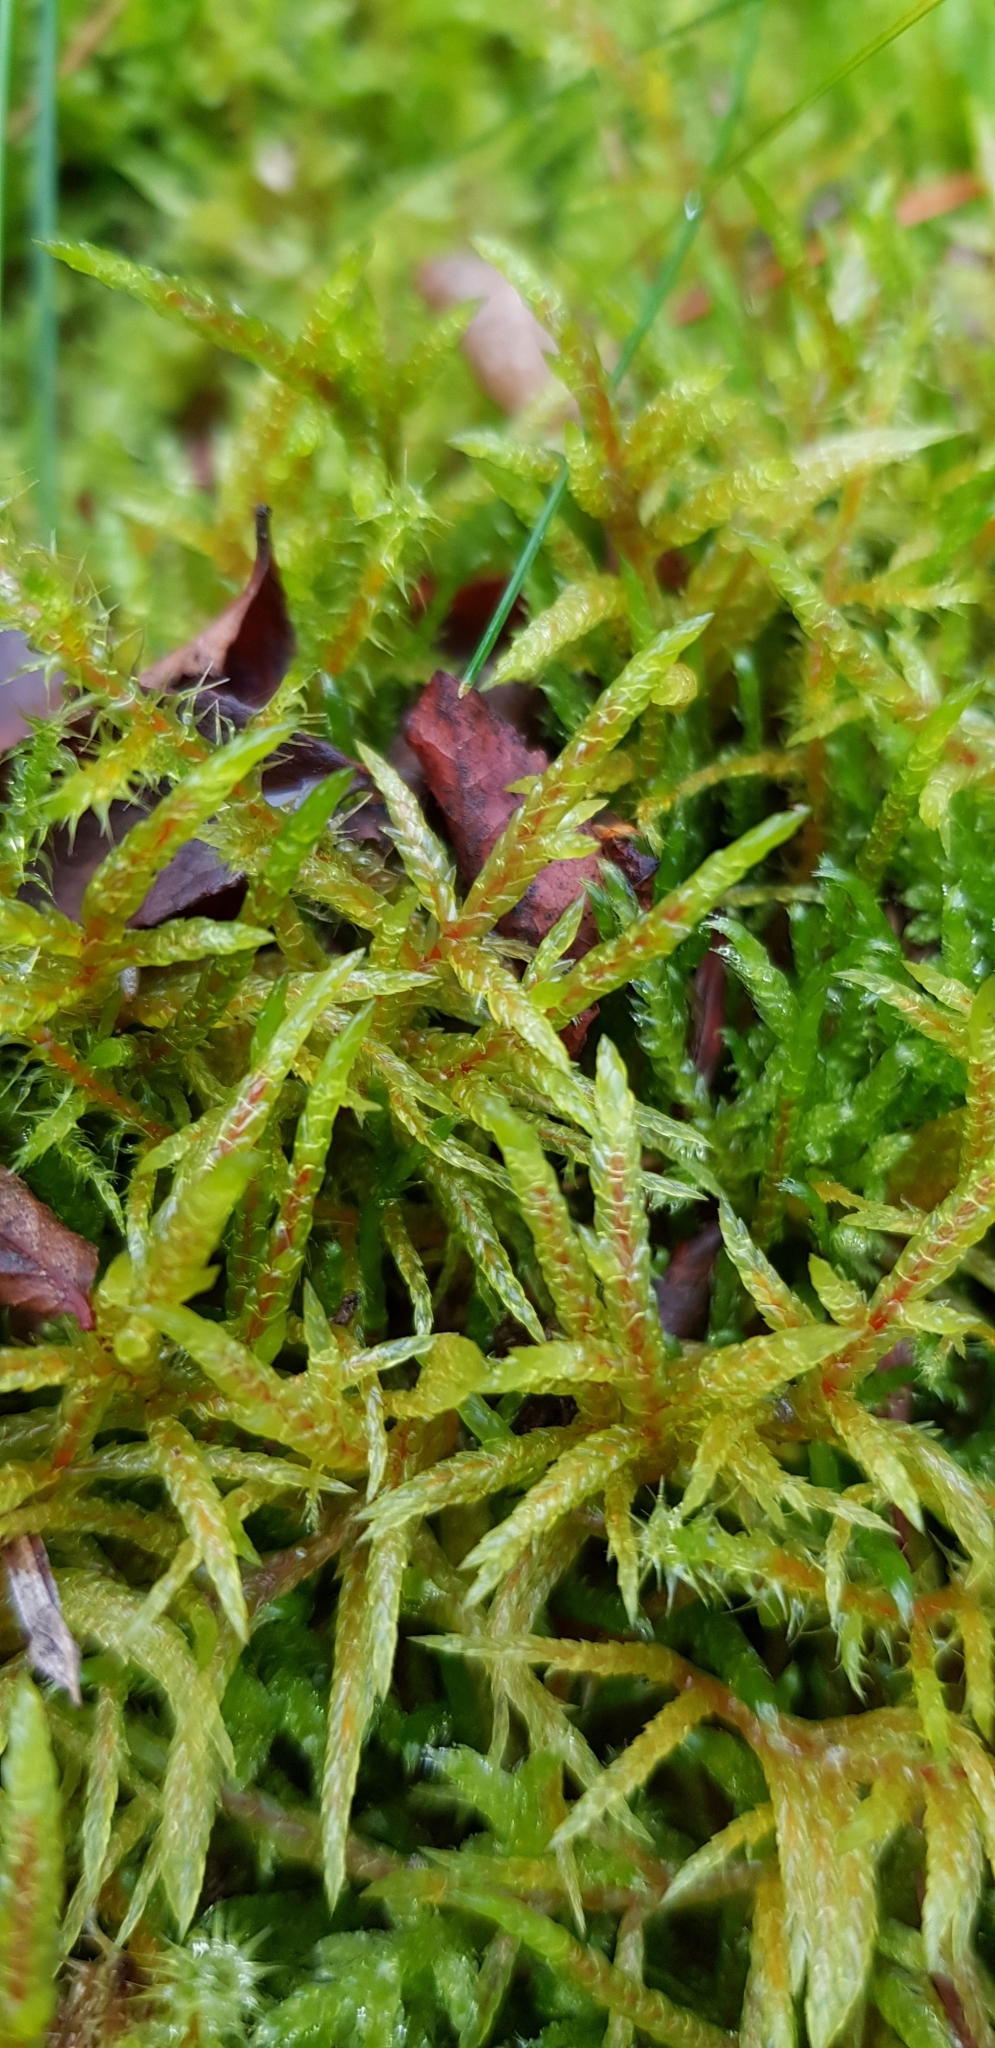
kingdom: Plantae
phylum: Bryophyta
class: Bryopsida
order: Hypnales
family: Hylocomiaceae
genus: Pleurozium
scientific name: Pleurozium schreberi
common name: Red-stemmed feather moss
